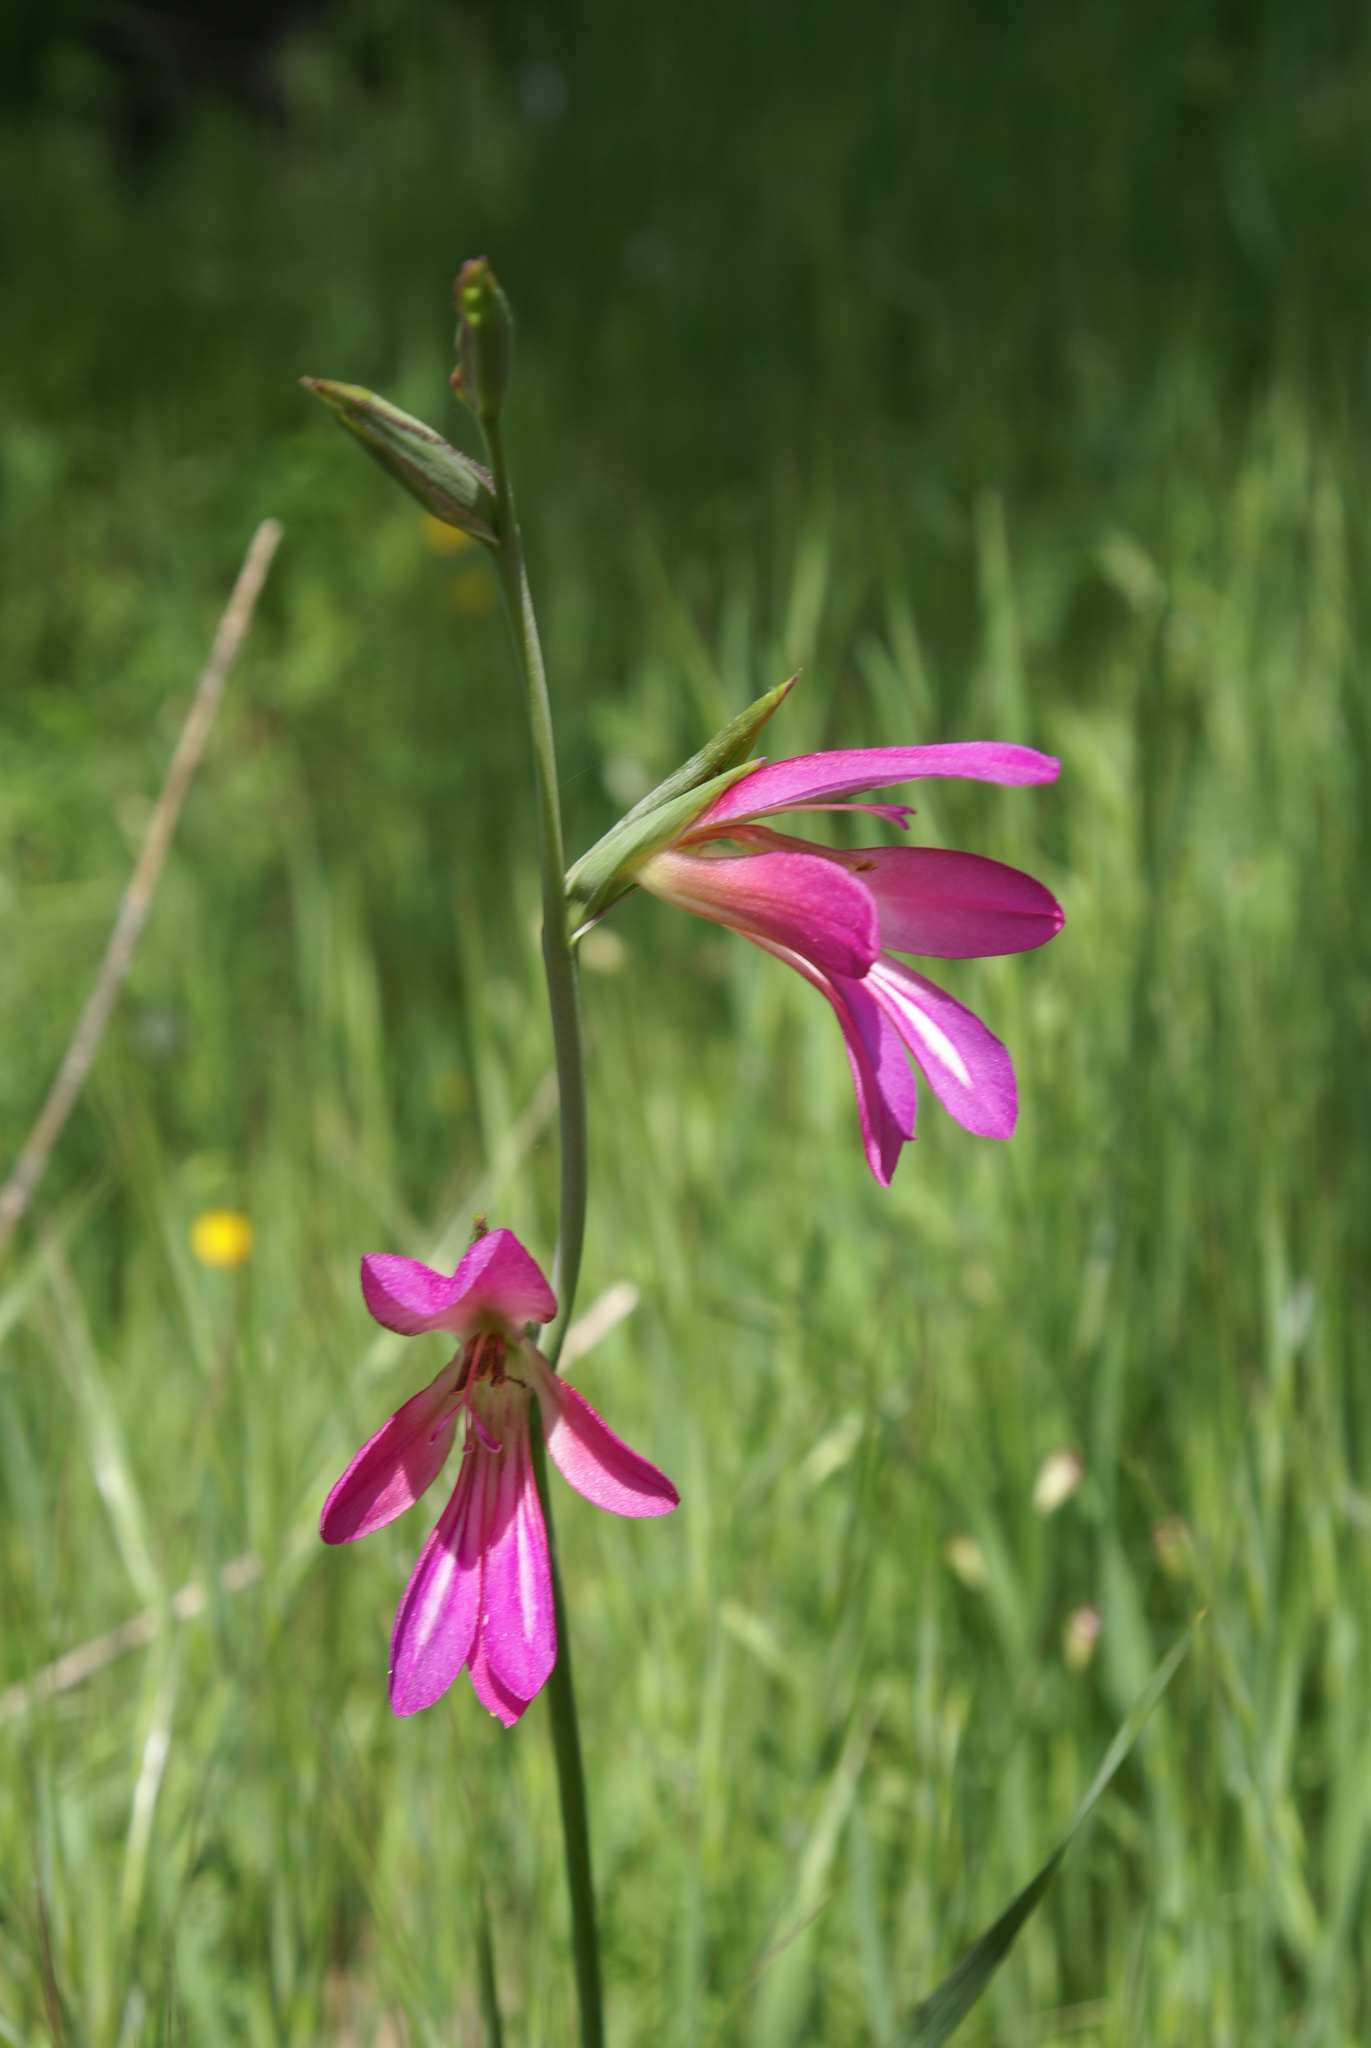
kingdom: Plantae
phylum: Tracheophyta
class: Liliopsida
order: Asparagales
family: Iridaceae
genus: Gladiolus
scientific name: Gladiolus italicus
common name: Field gladiolus
